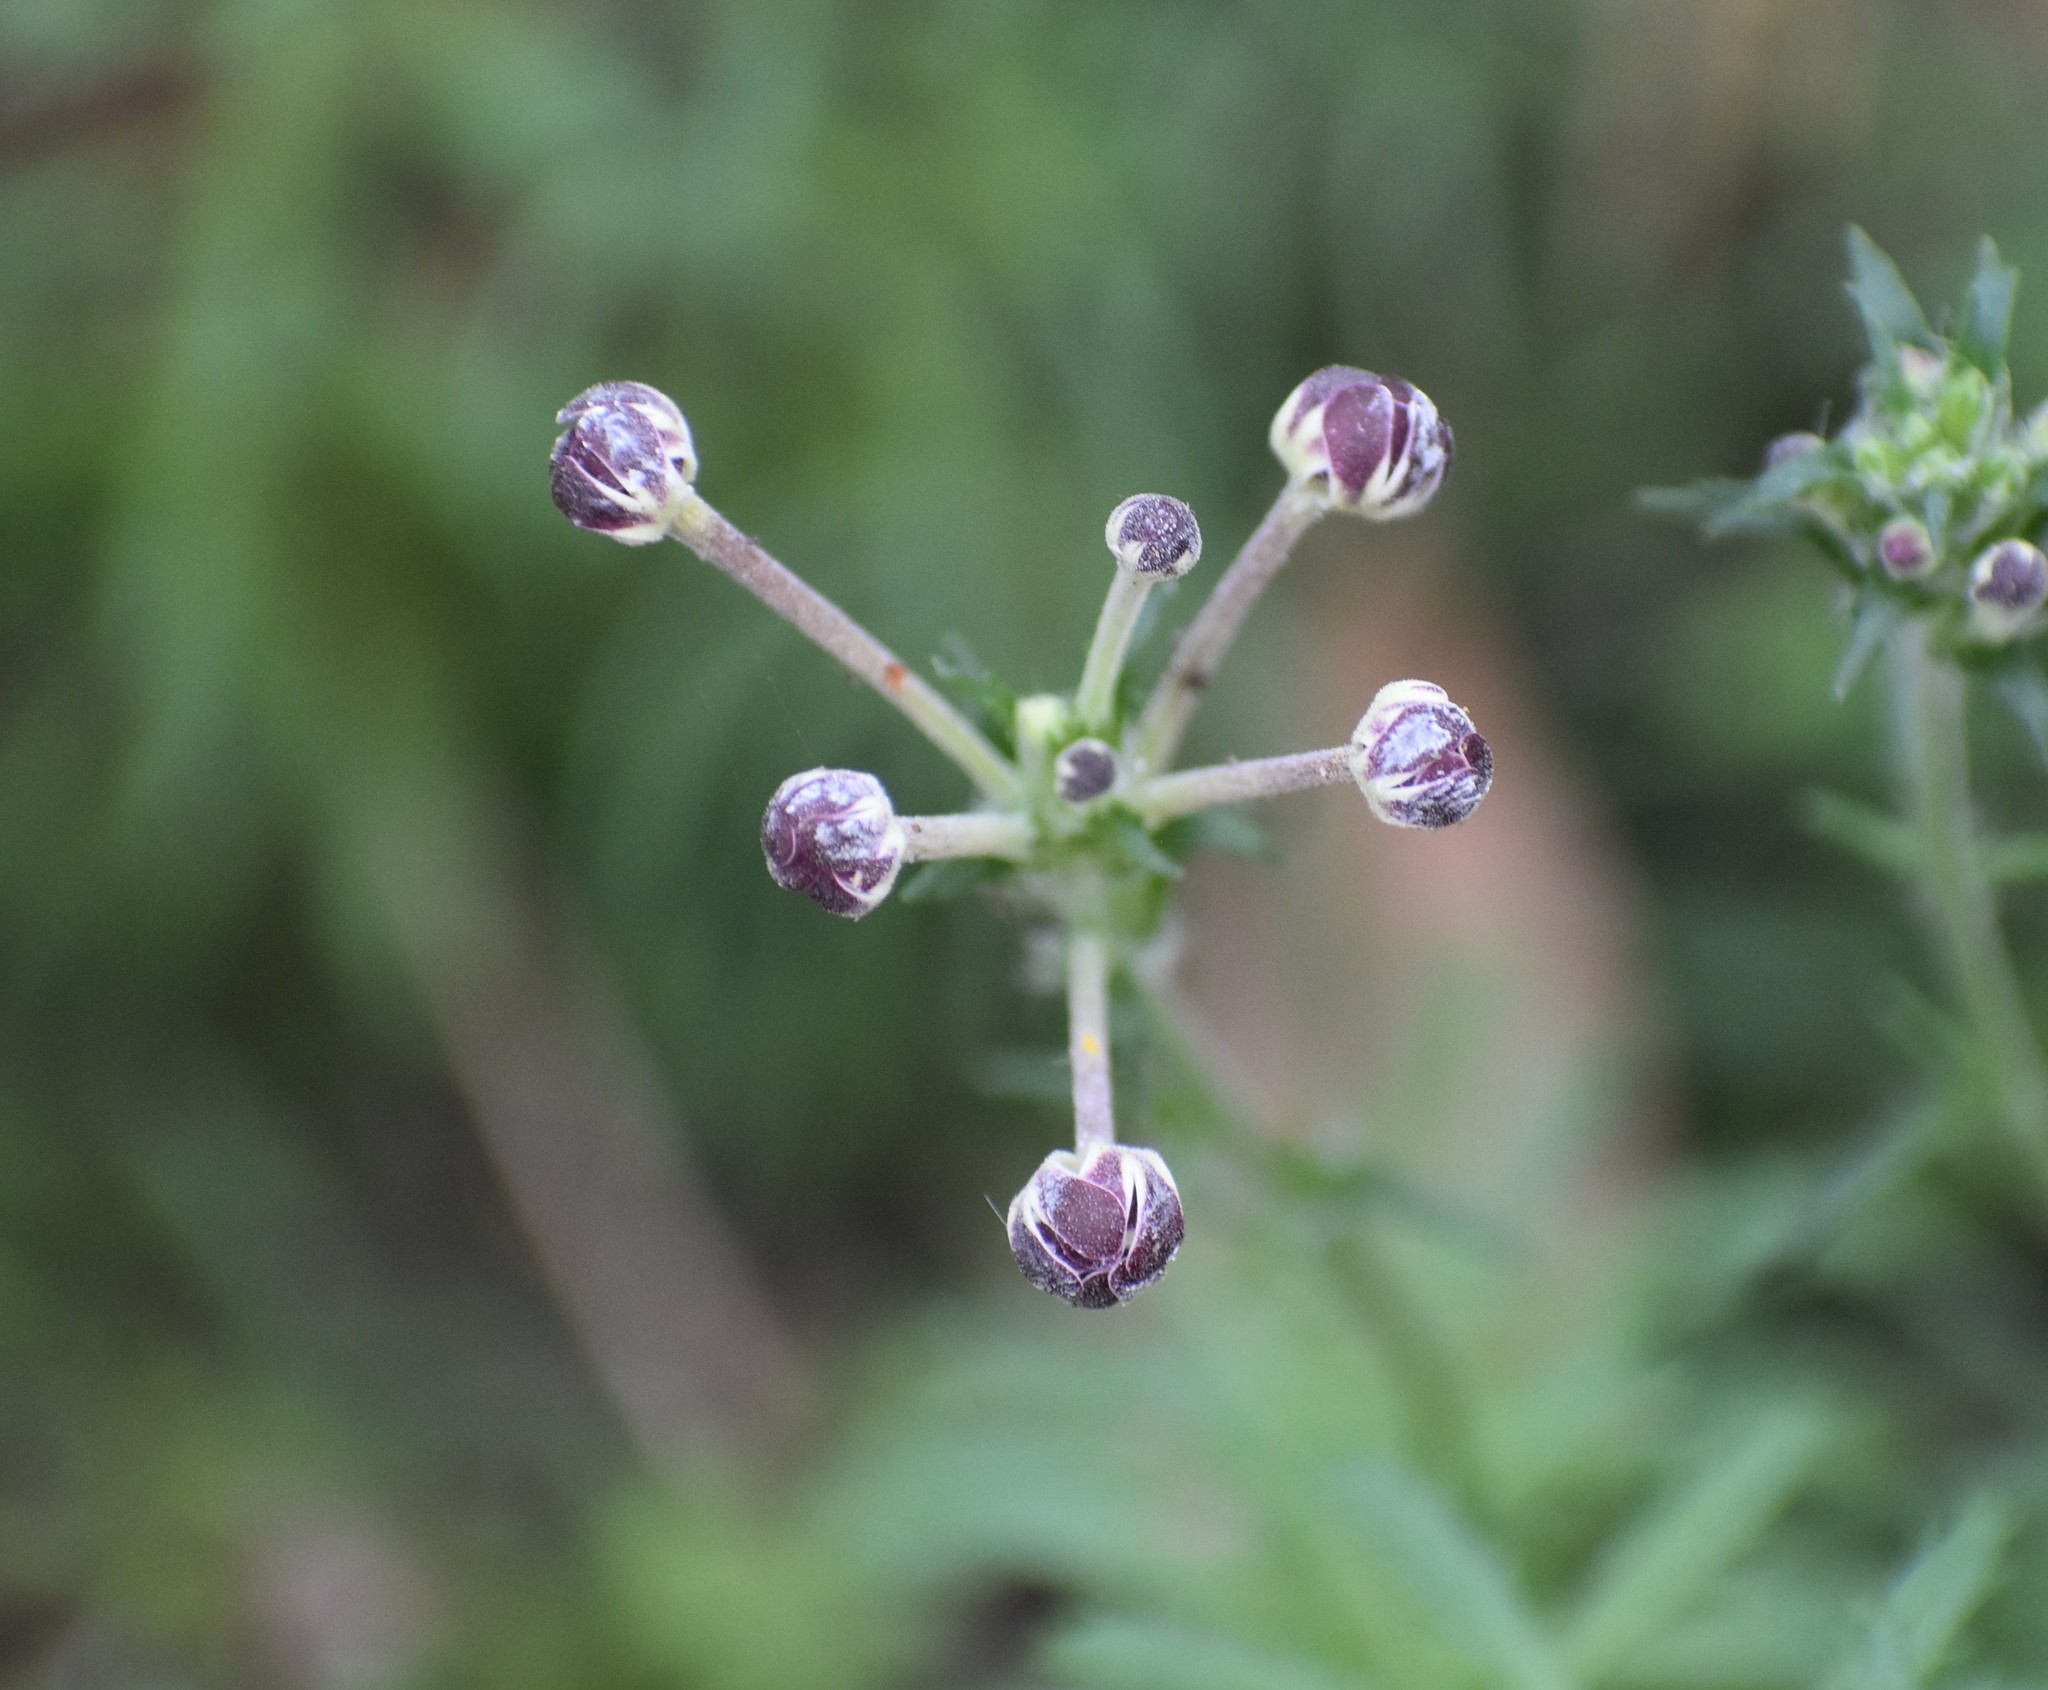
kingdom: Plantae
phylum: Tracheophyta
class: Magnoliopsida
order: Lamiales
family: Scrophulariaceae
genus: Zaluzianskya
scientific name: Zaluzianskya capensis
